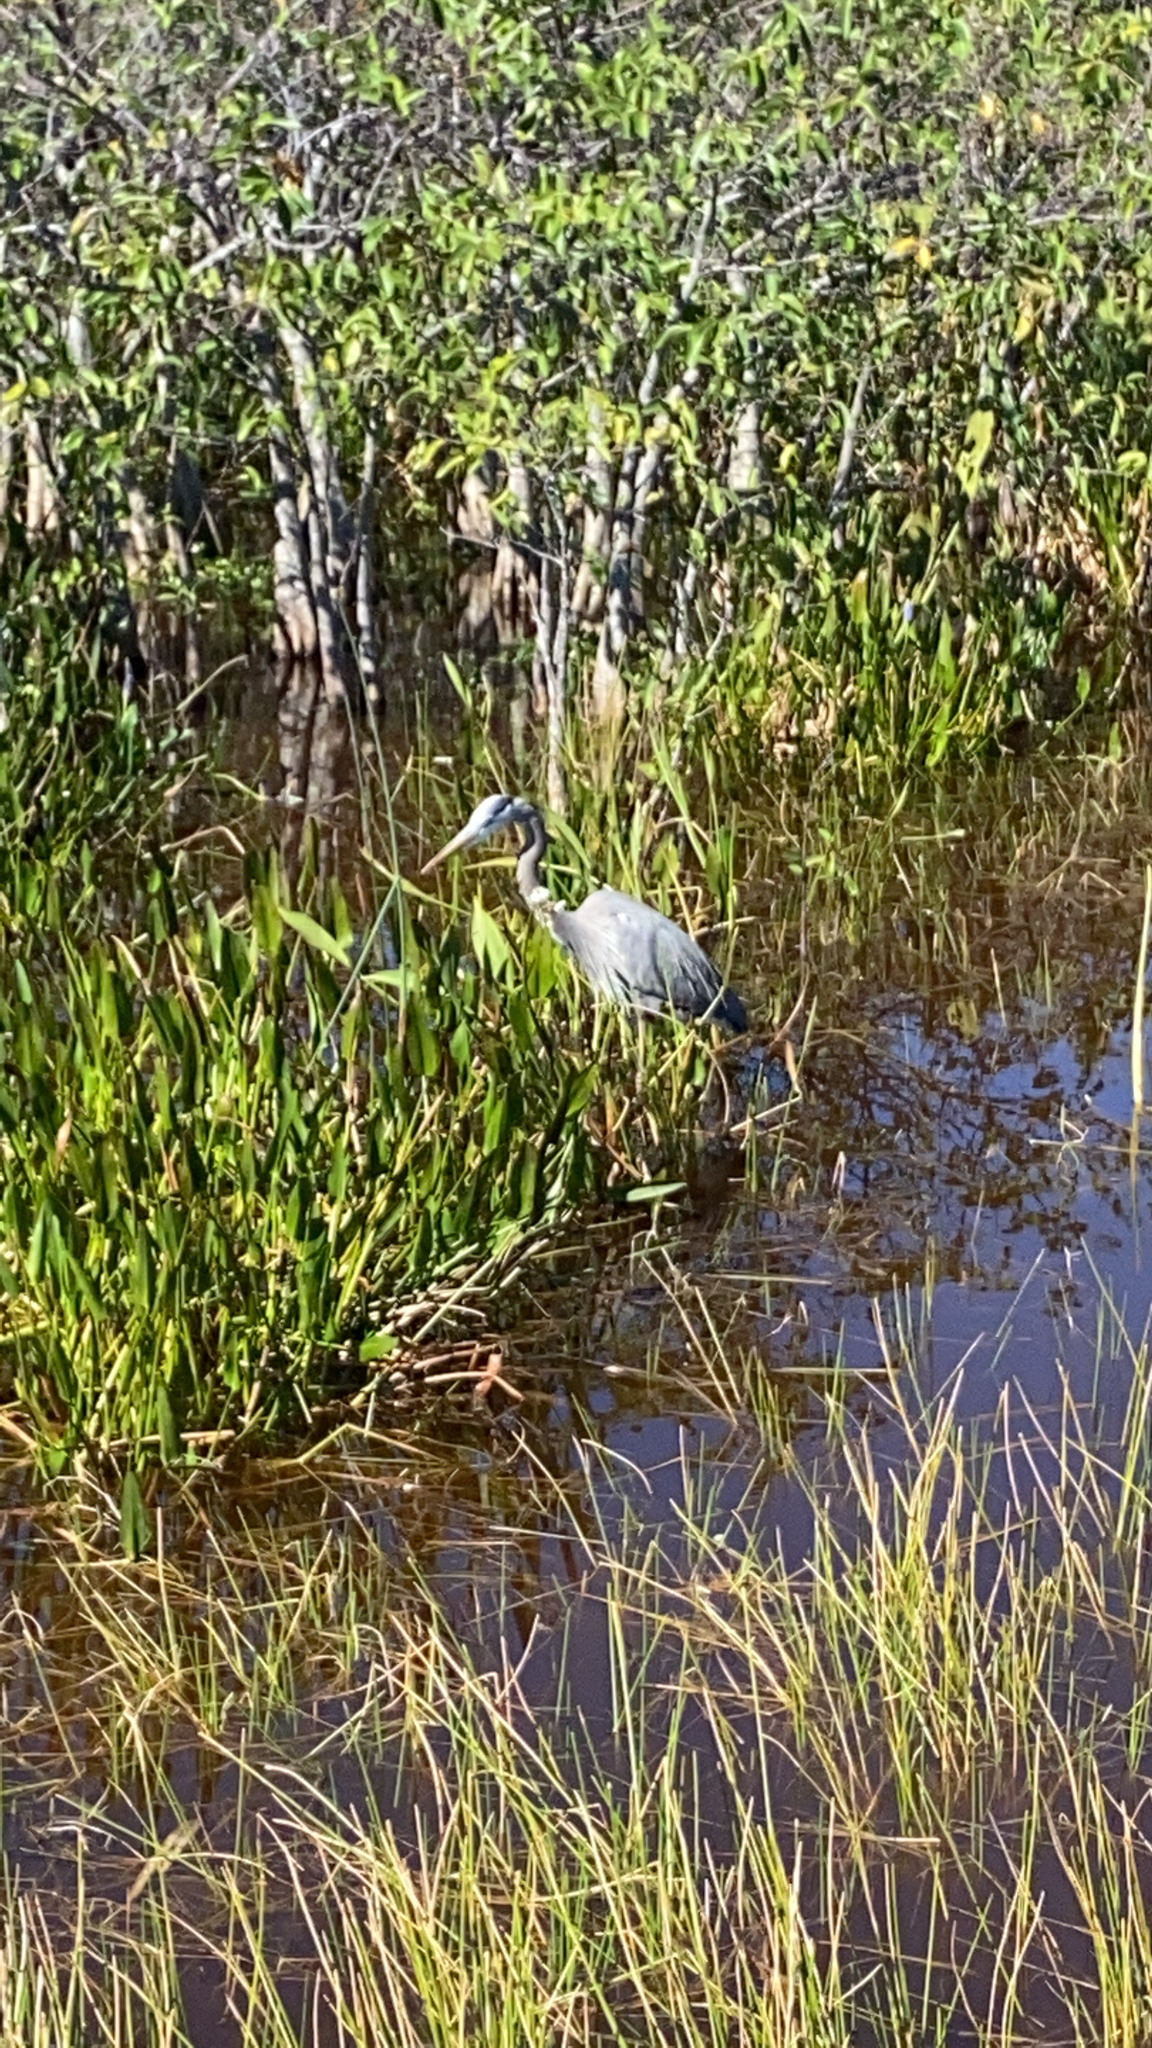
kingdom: Animalia
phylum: Chordata
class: Aves
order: Pelecaniformes
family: Ardeidae
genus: Ardea
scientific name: Ardea herodias
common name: Great blue heron
